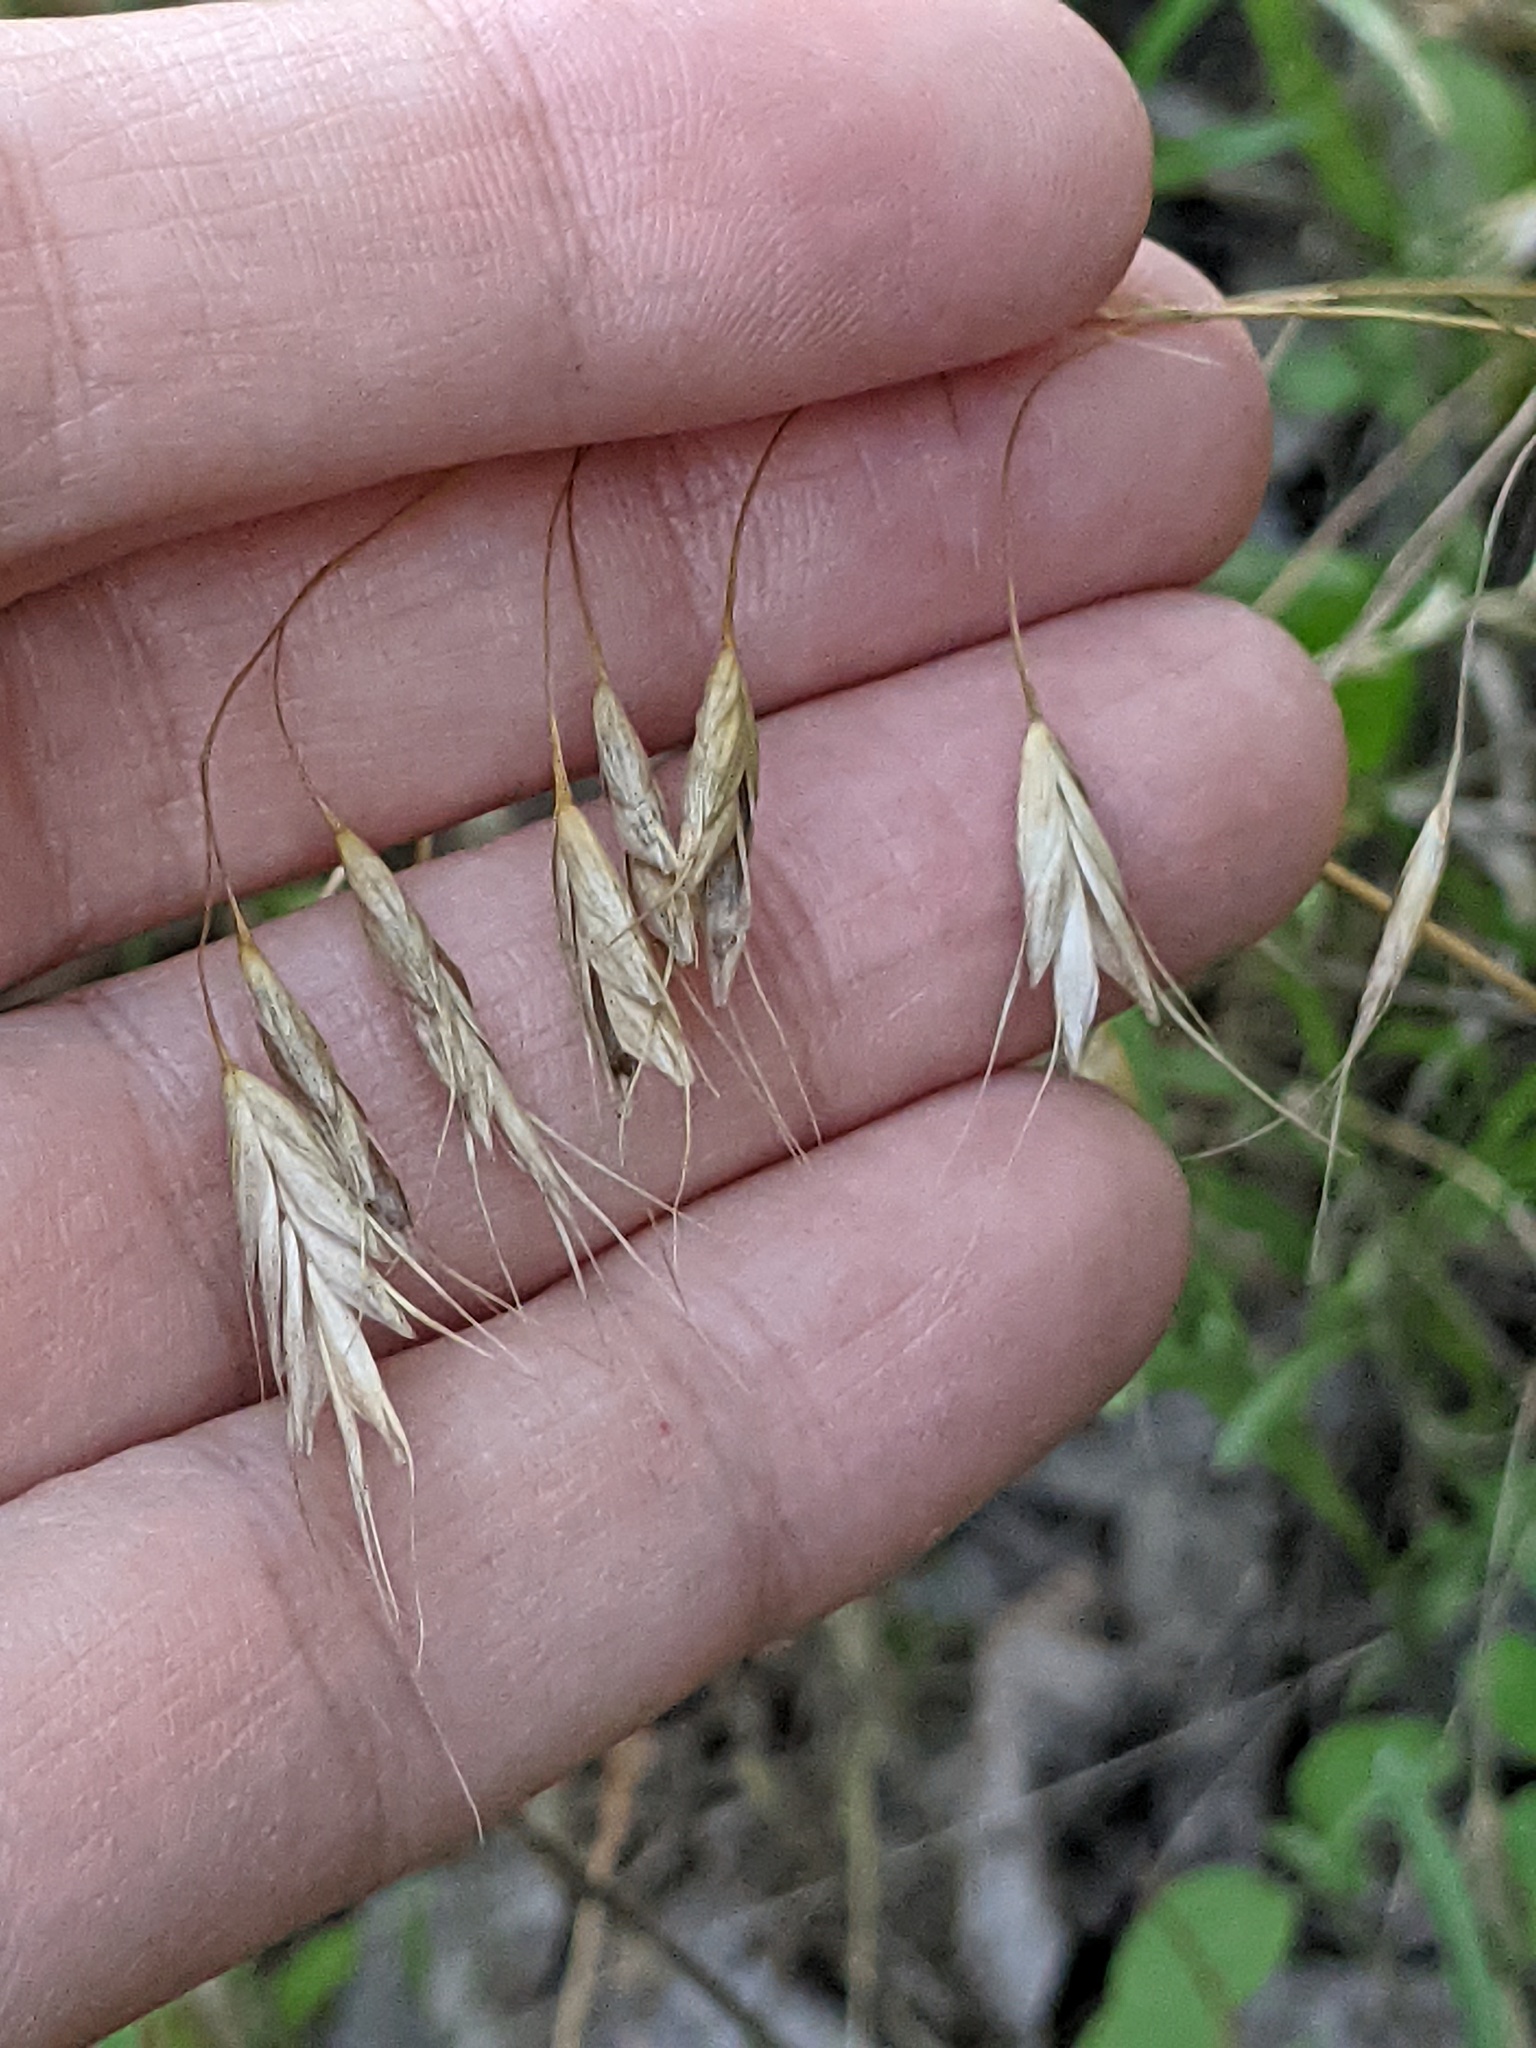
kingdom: Plantae
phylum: Tracheophyta
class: Liliopsida
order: Poales
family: Poaceae
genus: Bromus
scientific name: Bromus japonicus
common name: Japanese brome
